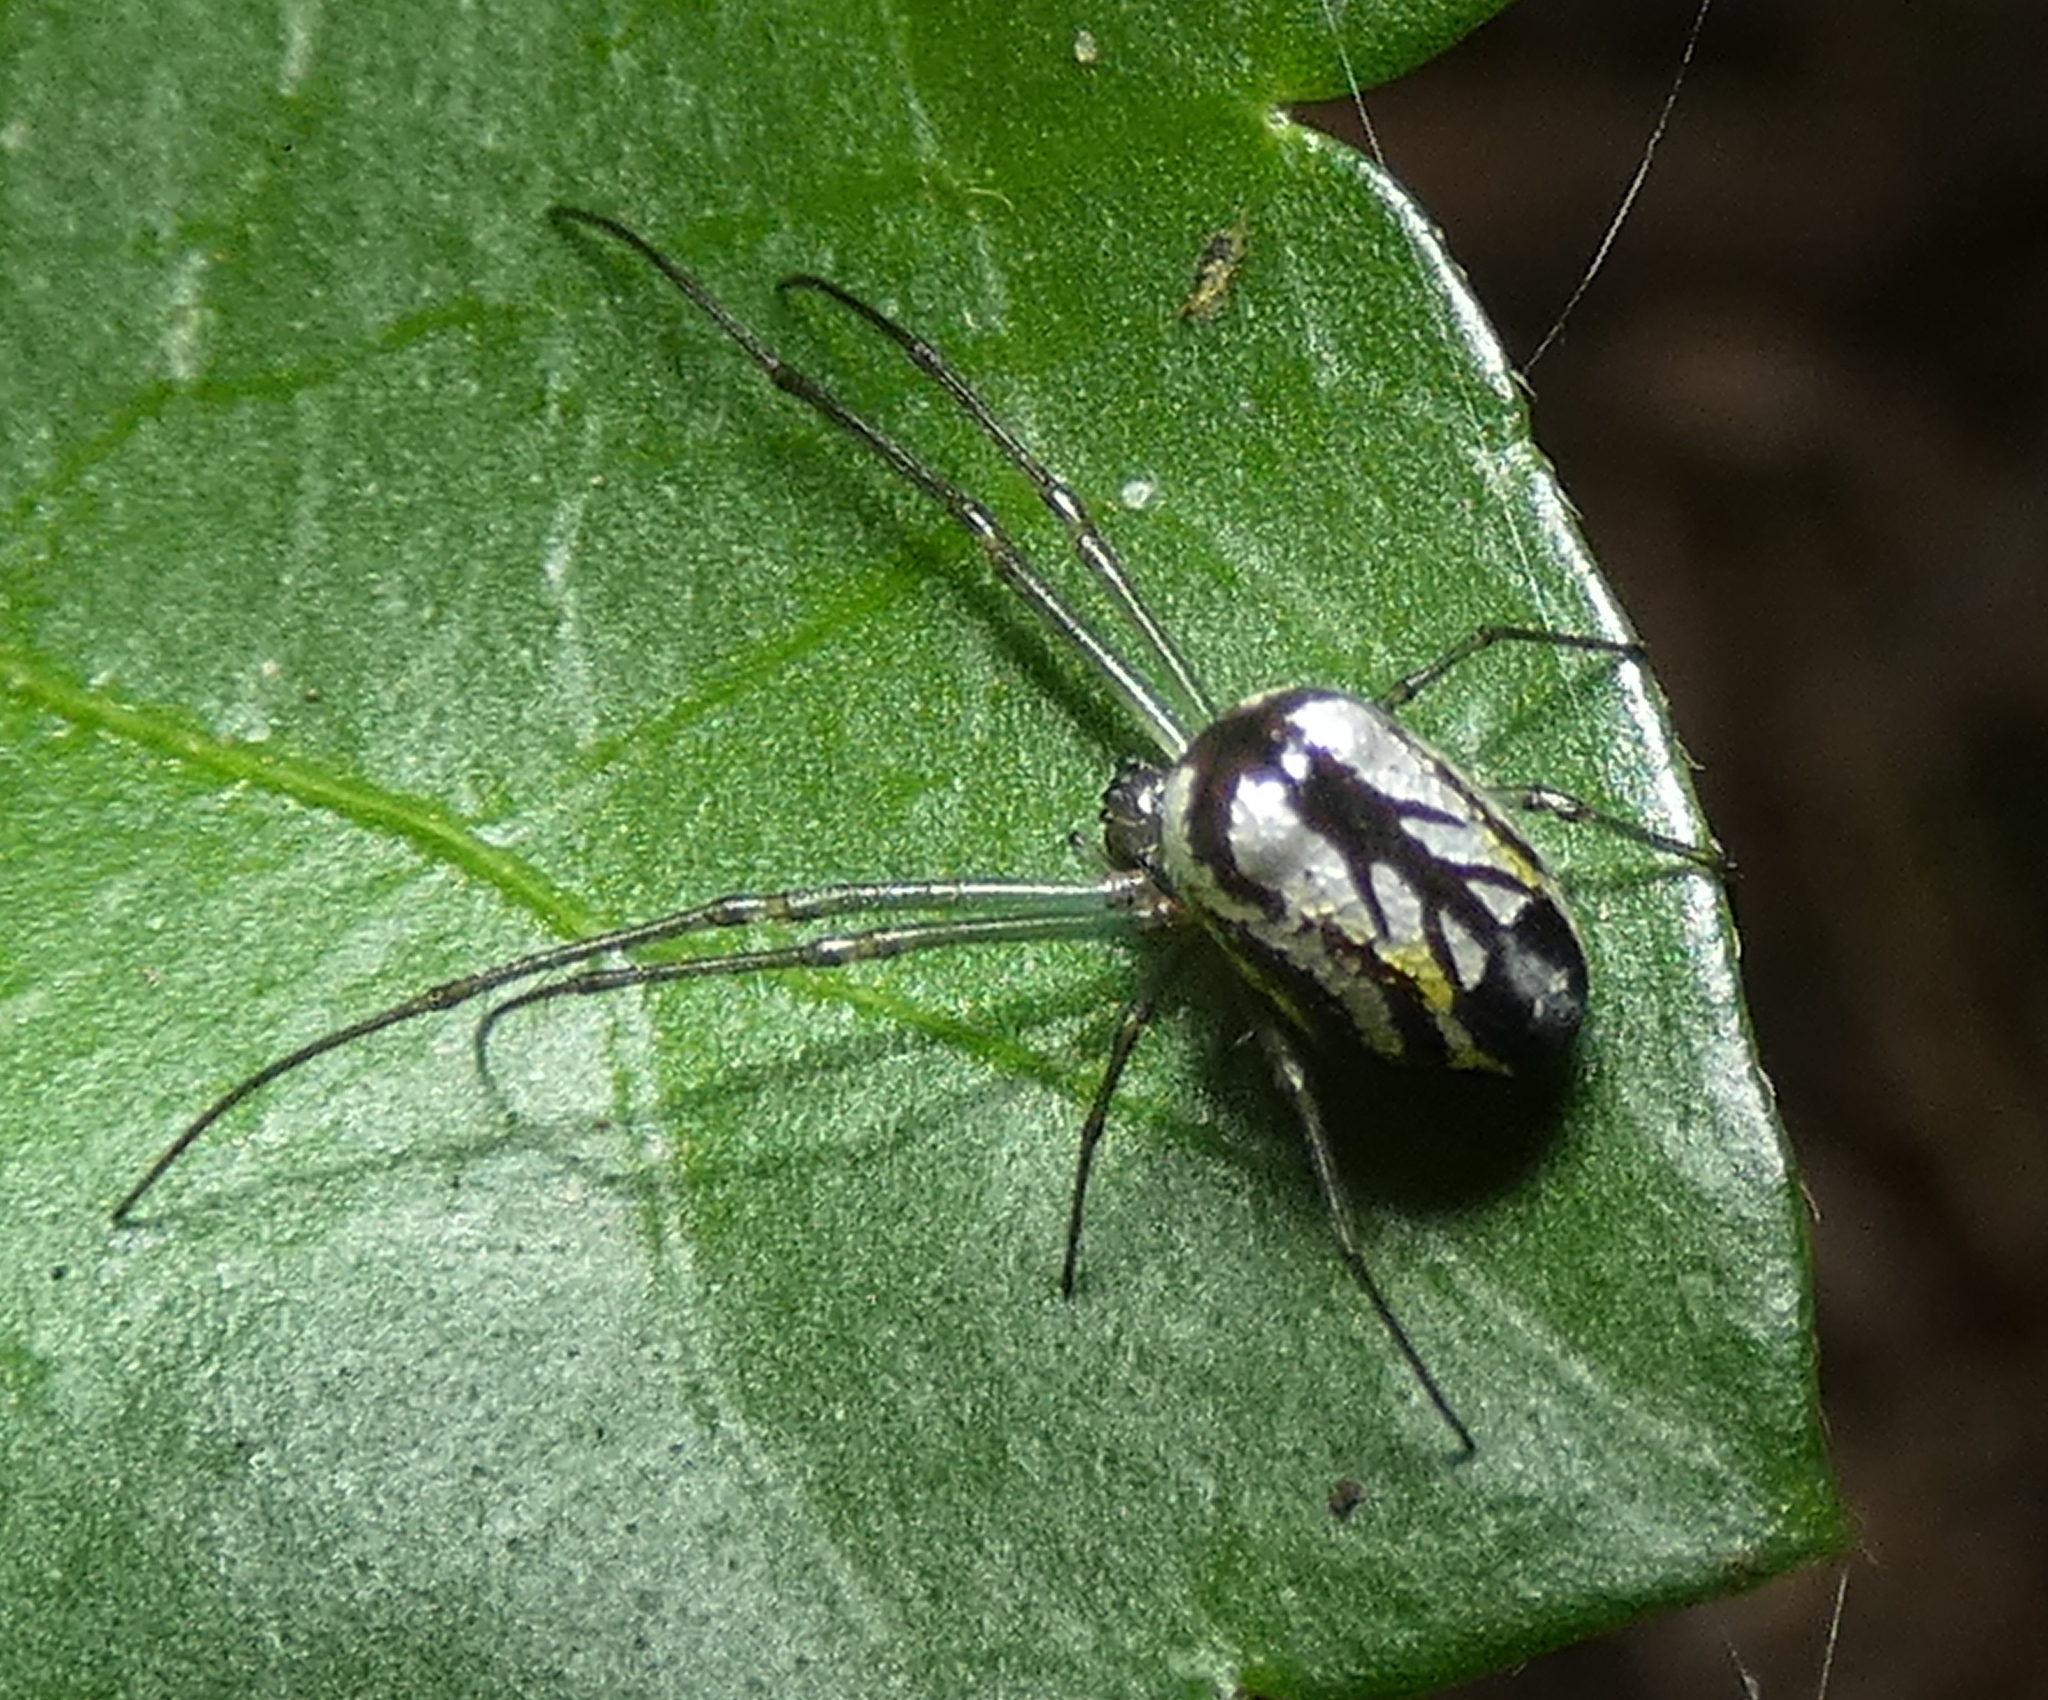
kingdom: Animalia
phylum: Arthropoda
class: Arachnida
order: Araneae
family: Tetragnathidae
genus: Leucauge
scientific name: Leucauge volupis
